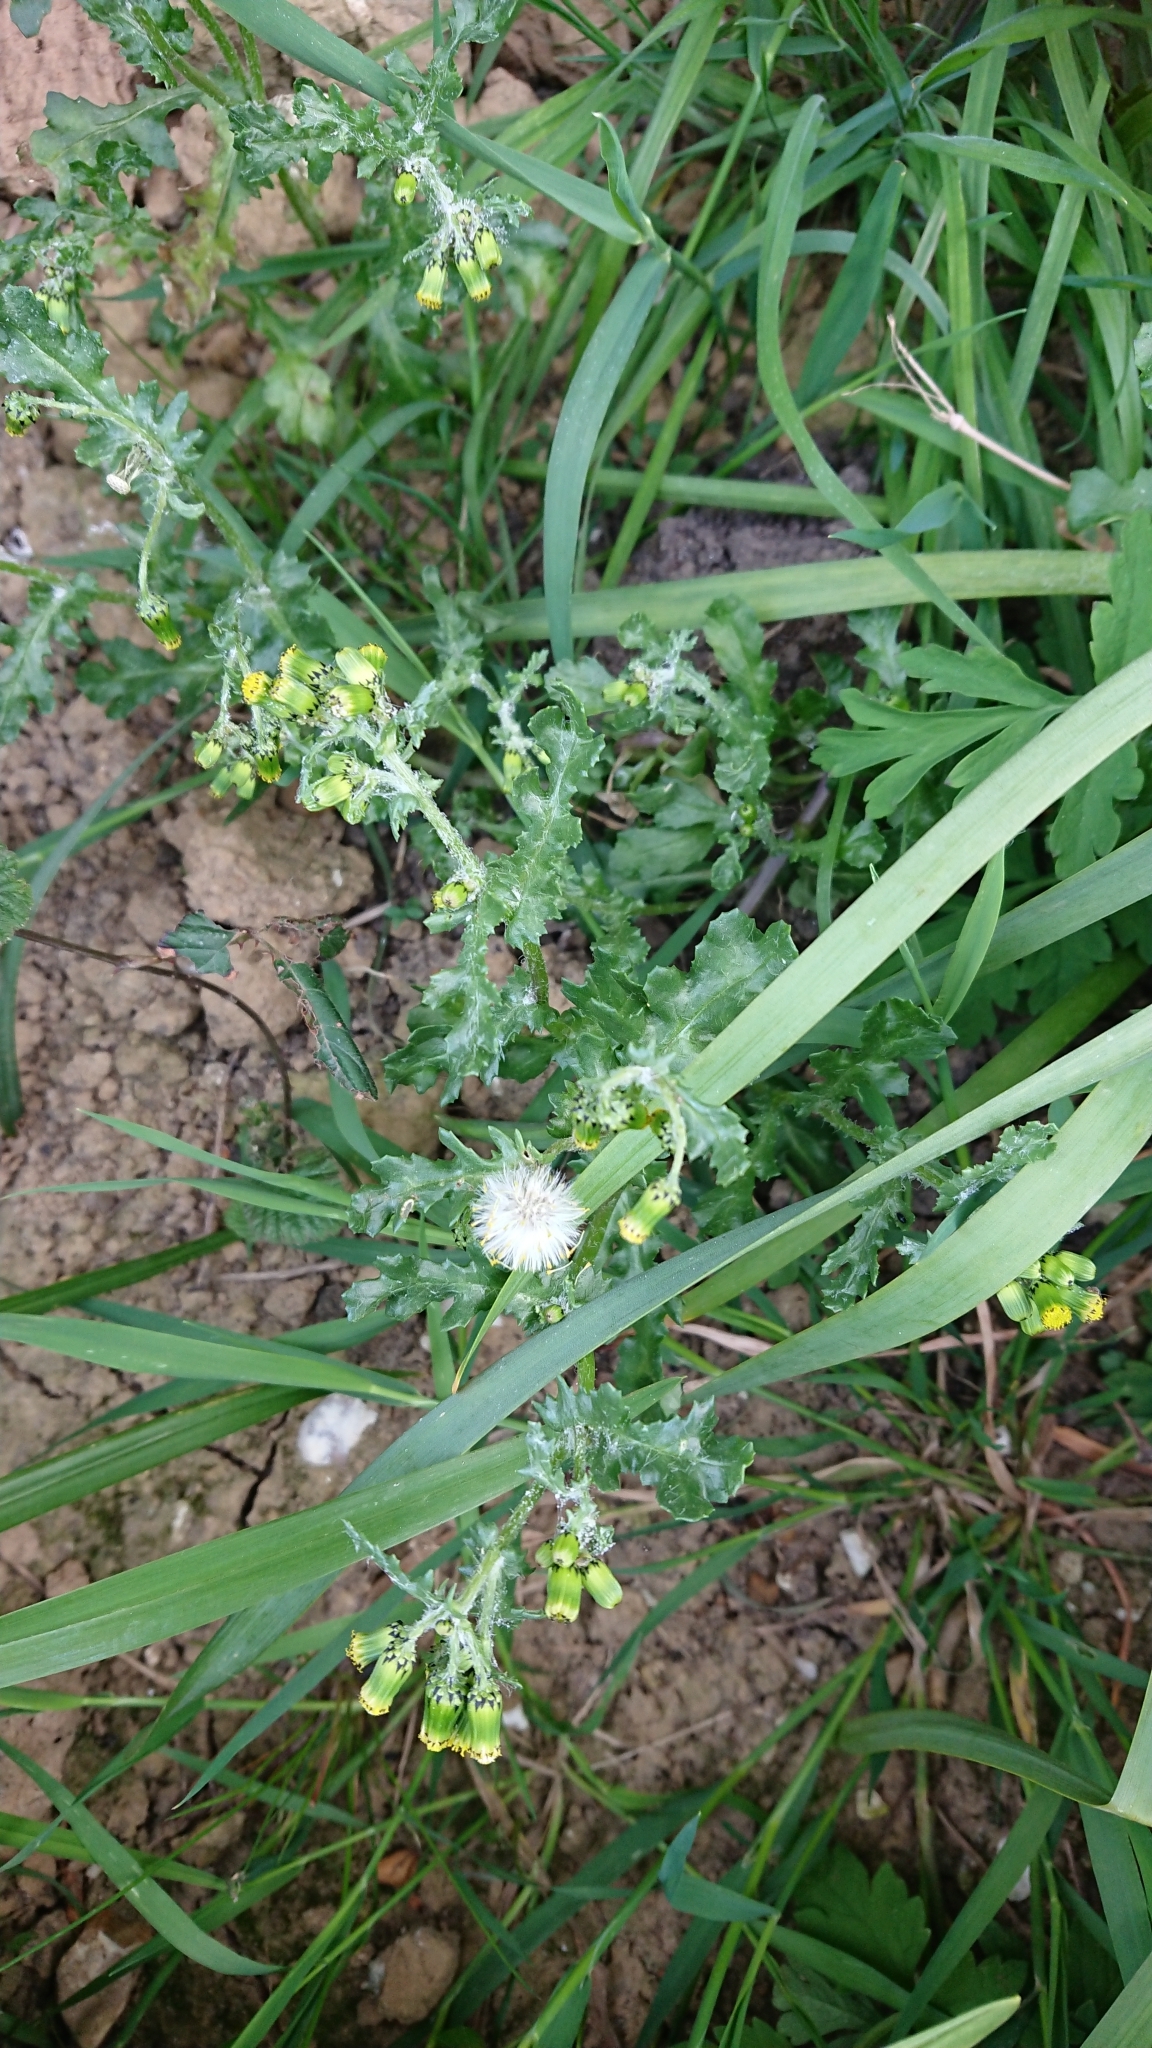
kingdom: Plantae
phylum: Tracheophyta
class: Magnoliopsida
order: Asterales
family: Asteraceae
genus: Senecio
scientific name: Senecio vulgaris
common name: Old-man-in-the-spring
